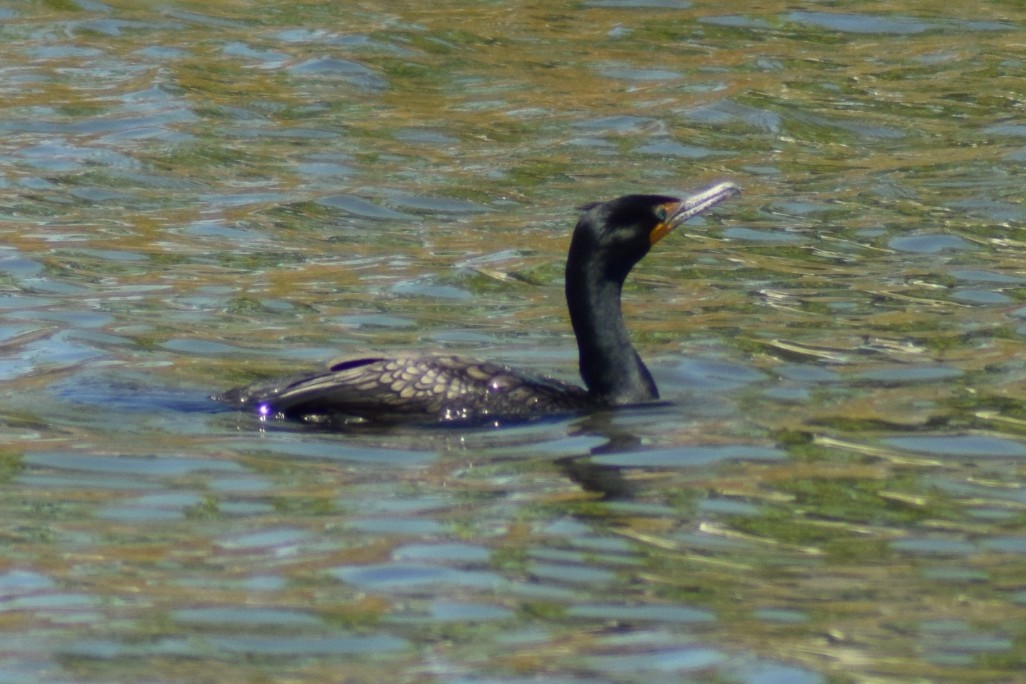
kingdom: Animalia
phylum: Chordata
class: Aves
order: Suliformes
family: Phalacrocoracidae
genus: Phalacrocorax
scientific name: Phalacrocorax auritus
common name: Double-crested cormorant
